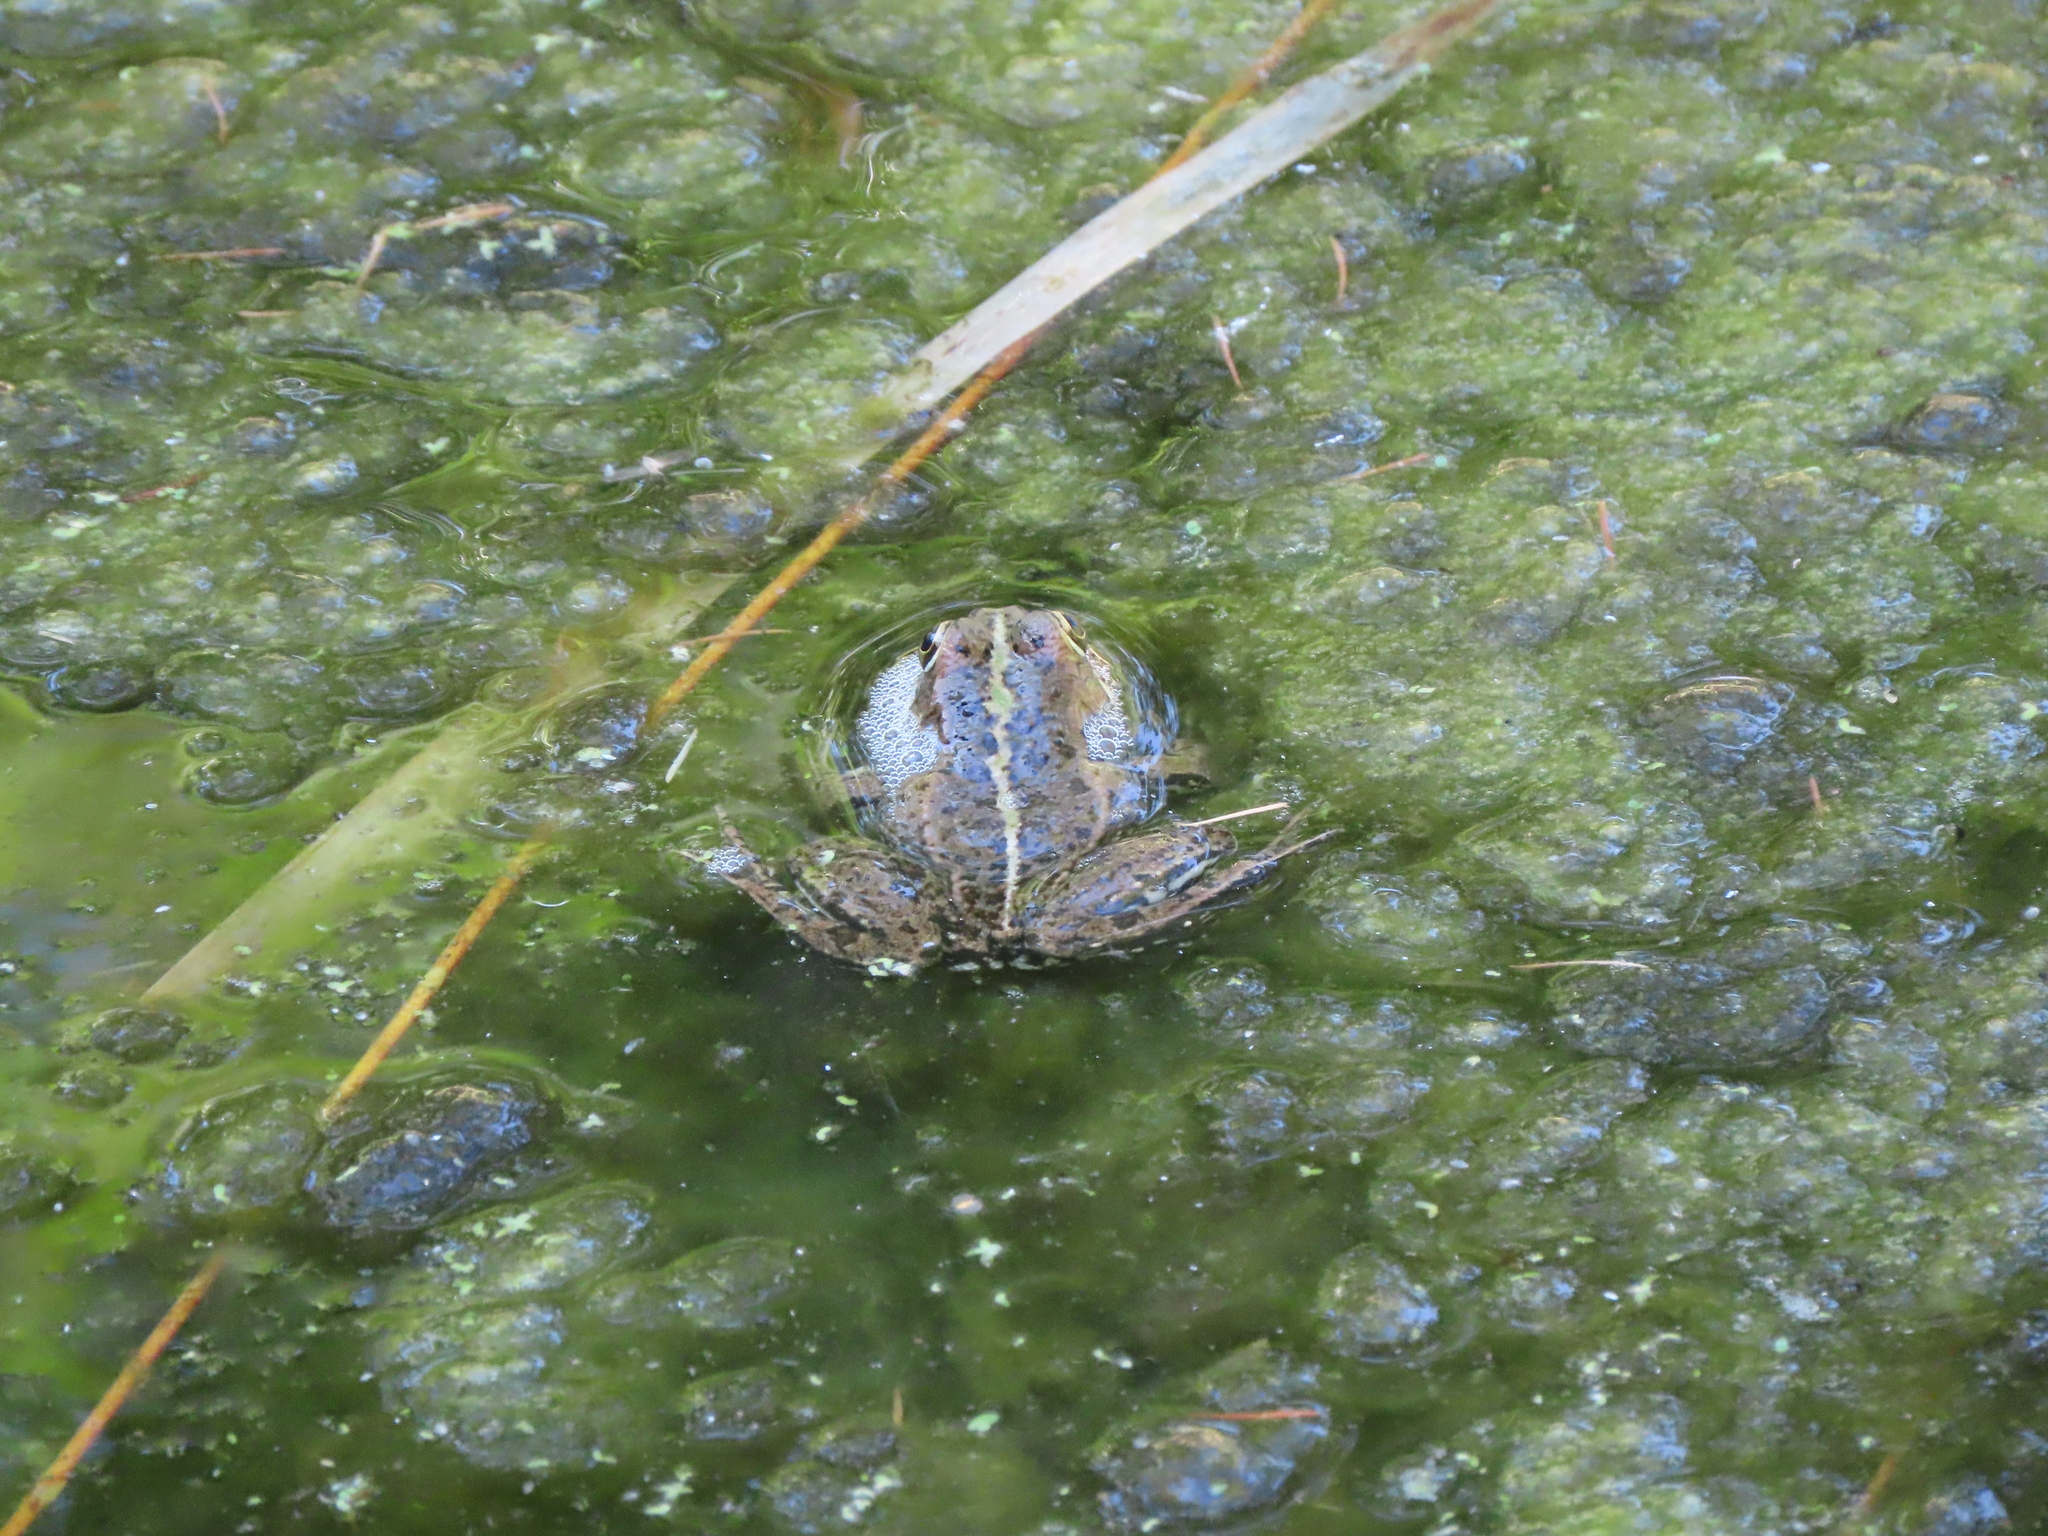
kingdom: Animalia
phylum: Chordata
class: Amphibia
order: Anura
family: Ranidae
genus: Pelophylax
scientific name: Pelophylax perezi
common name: Perez's frog
